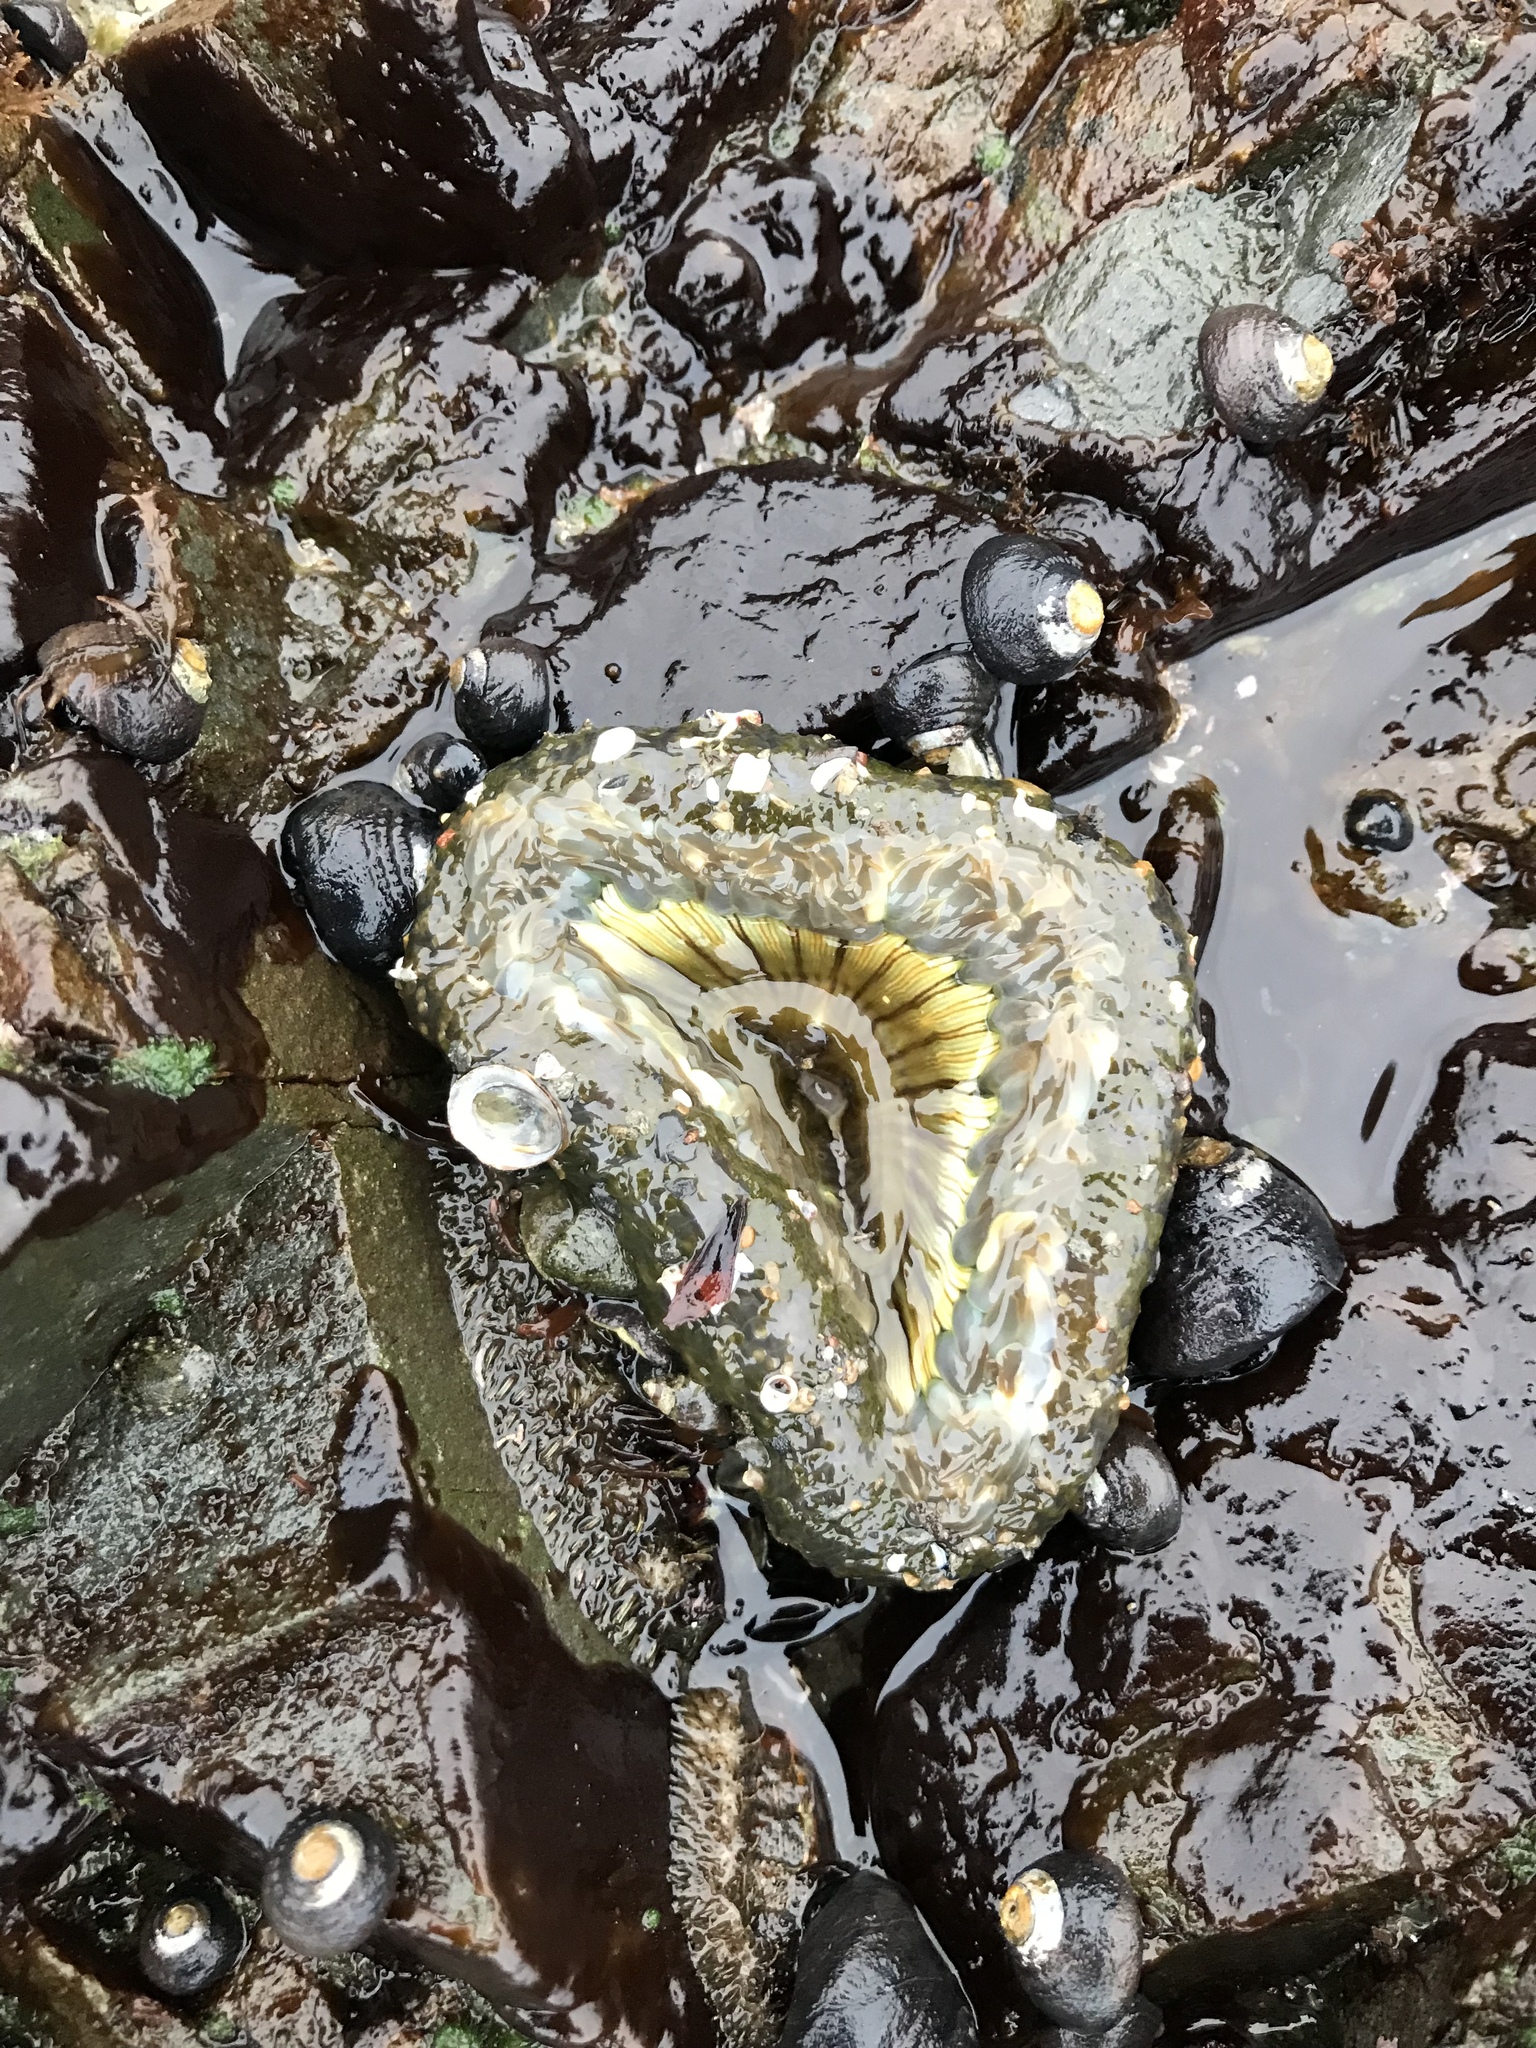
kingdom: Animalia
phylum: Cnidaria
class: Anthozoa
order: Actiniaria
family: Actiniidae
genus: Anthopleura
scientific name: Anthopleura sola
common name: Sun anemone
